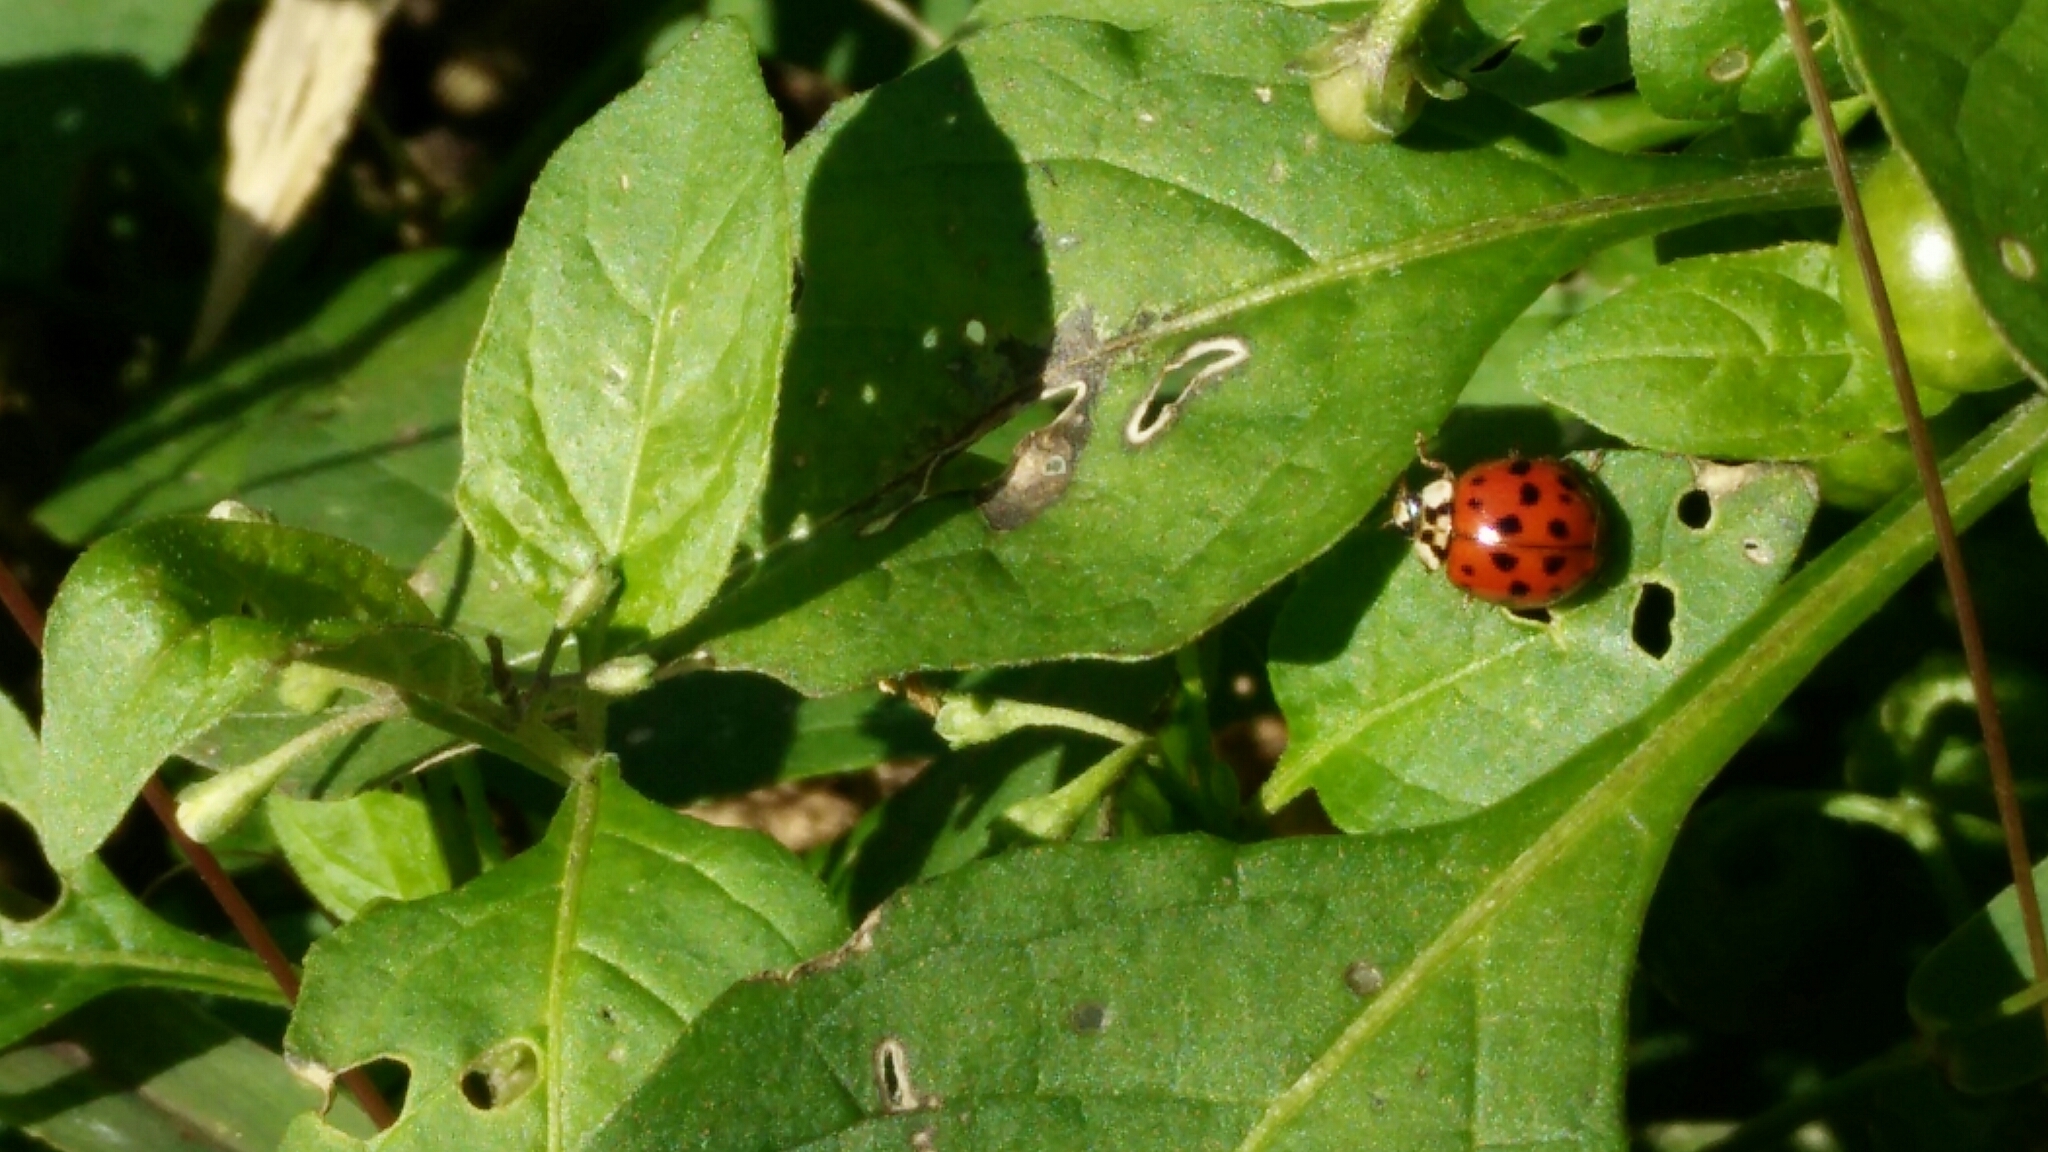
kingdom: Animalia
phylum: Arthropoda
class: Insecta
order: Coleoptera
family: Coccinellidae
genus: Harmonia
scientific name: Harmonia axyridis
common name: Harlequin ladybird
